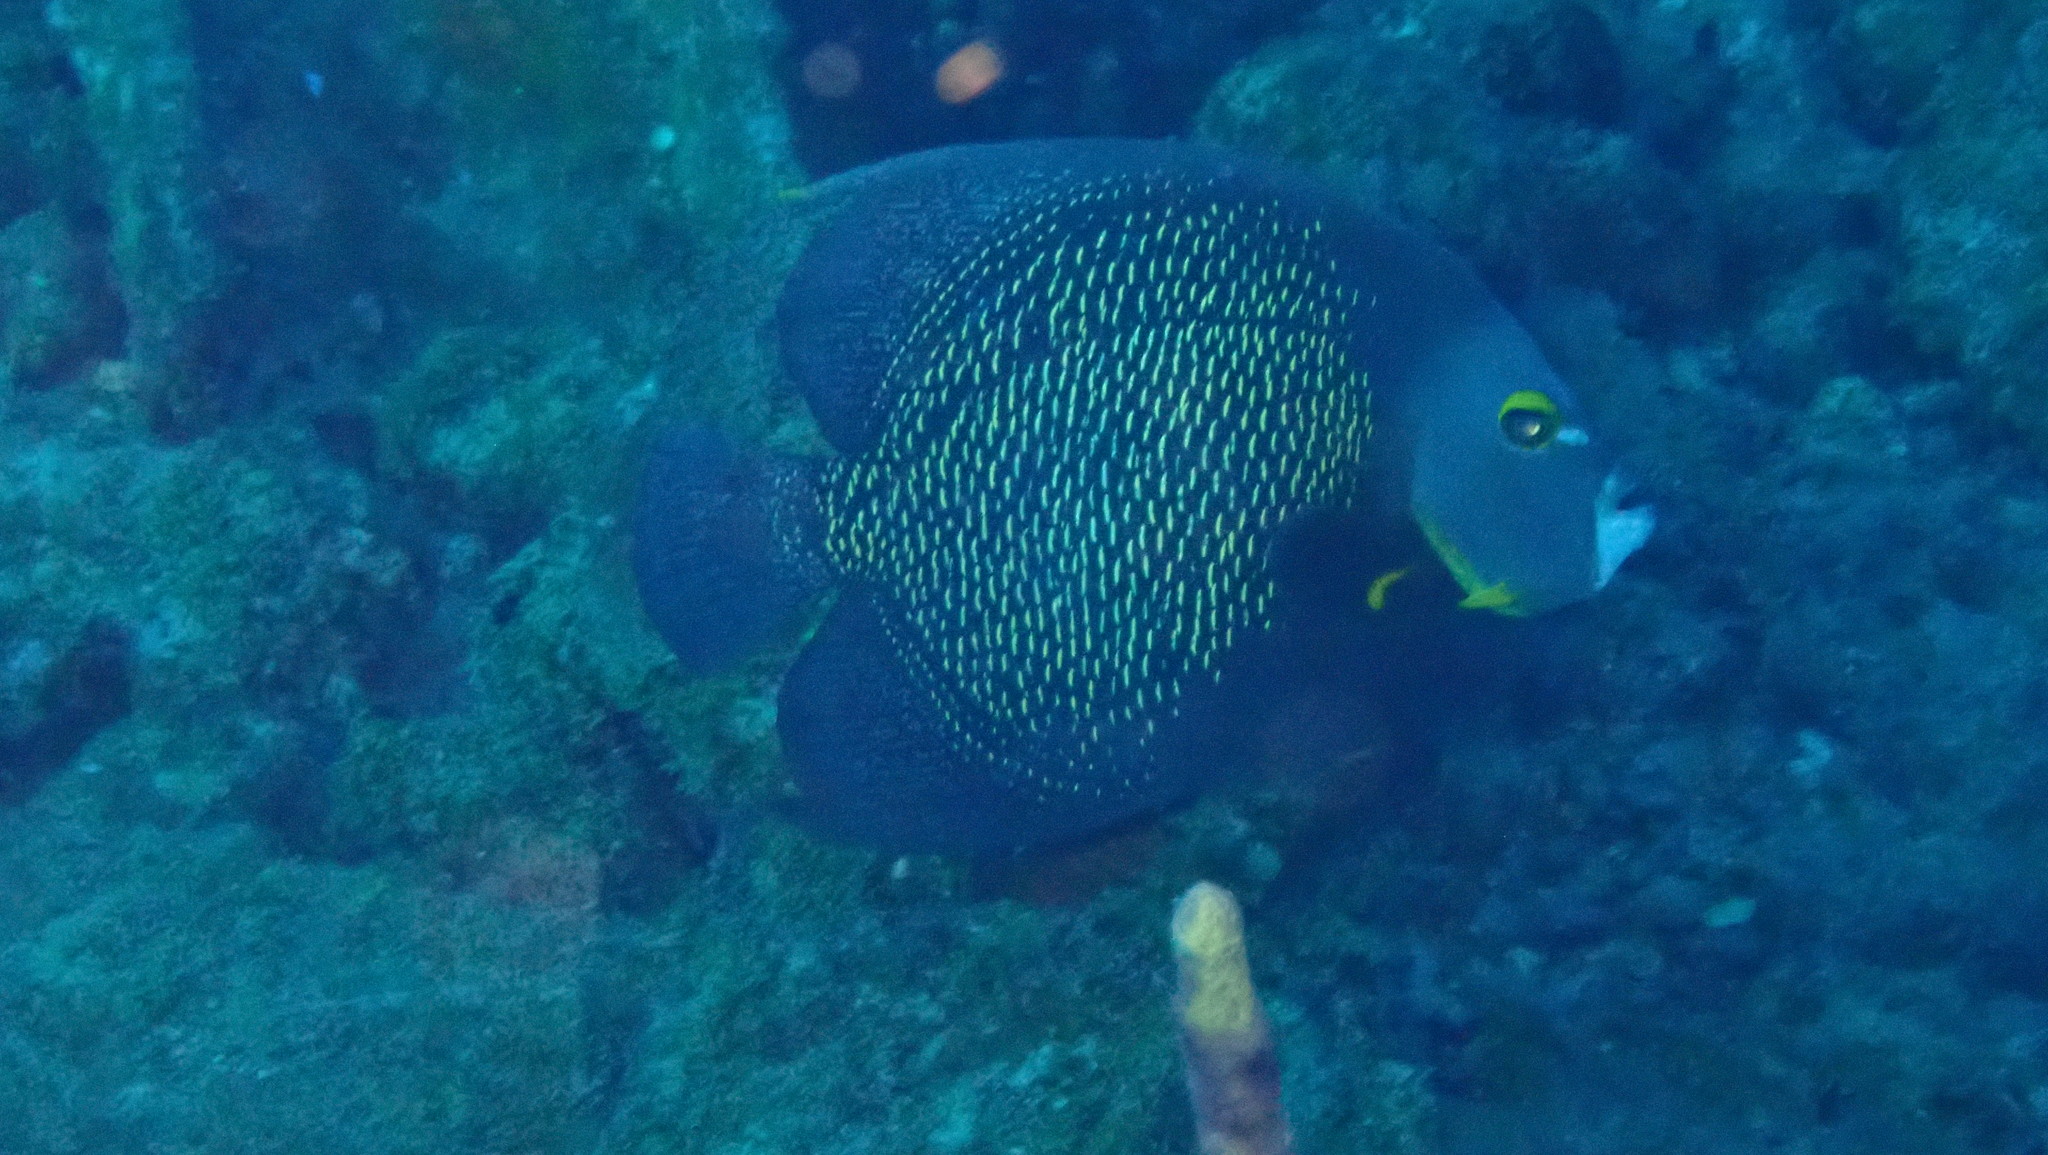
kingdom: Animalia
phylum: Chordata
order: Perciformes
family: Pomacanthidae
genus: Pomacanthus
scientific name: Pomacanthus paru
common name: French angelfish
